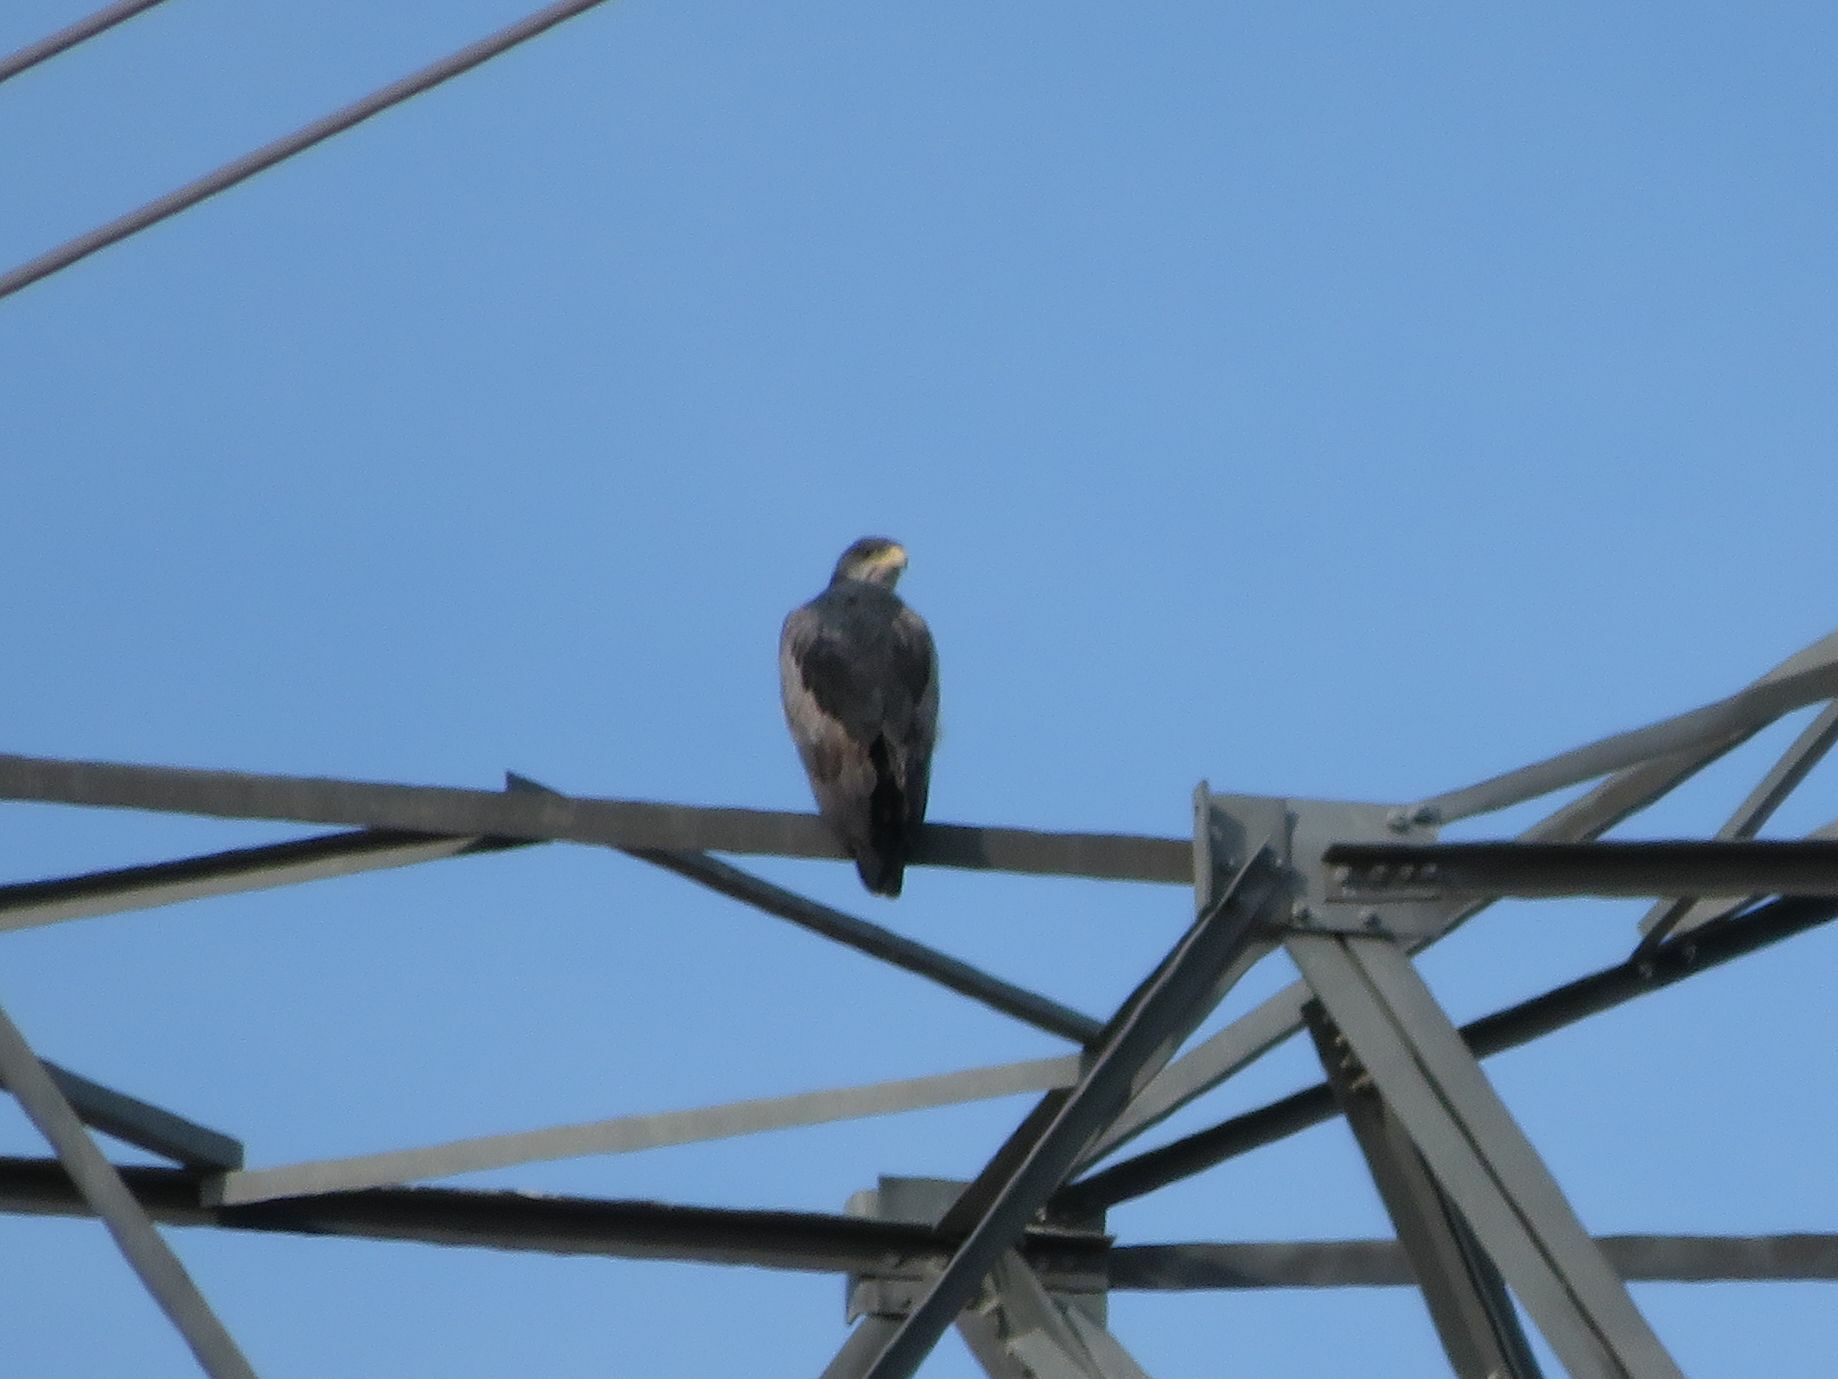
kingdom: Animalia
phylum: Chordata
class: Aves
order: Accipitriformes
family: Accipitridae
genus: Geranoaetus
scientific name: Geranoaetus melanoleucus
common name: Black-chested buzzard-eagle
